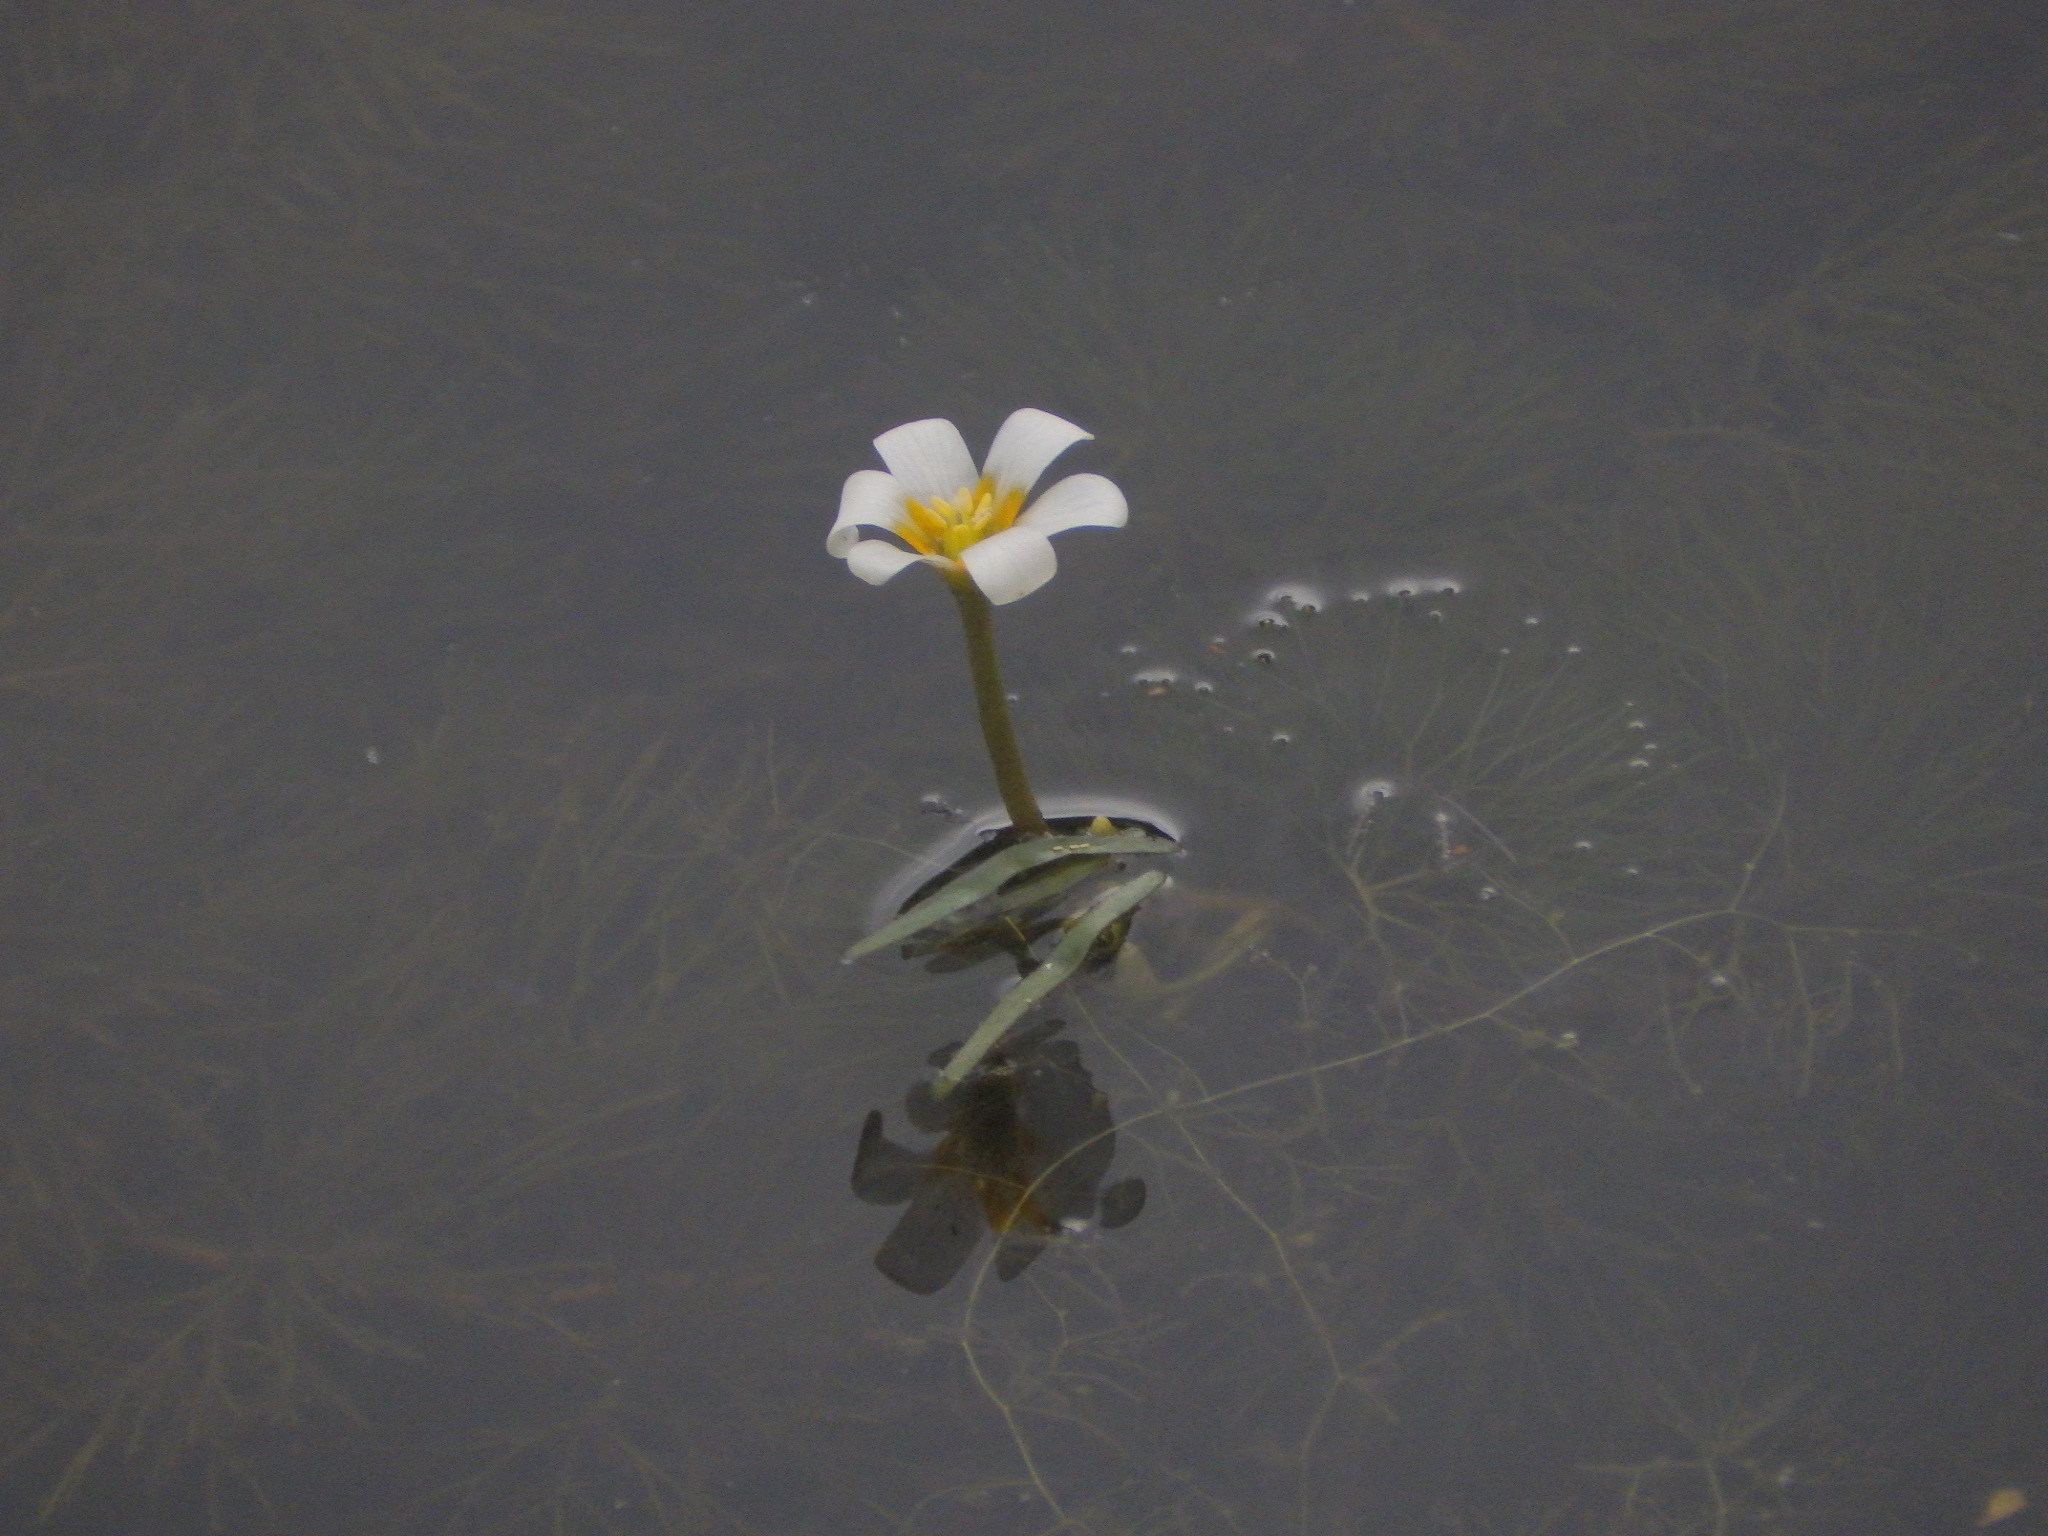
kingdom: Plantae
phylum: Tracheophyta
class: Magnoliopsida
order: Nymphaeales
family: Cabombaceae
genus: Cabomba
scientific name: Cabomba caroliniana
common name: Fanwort
